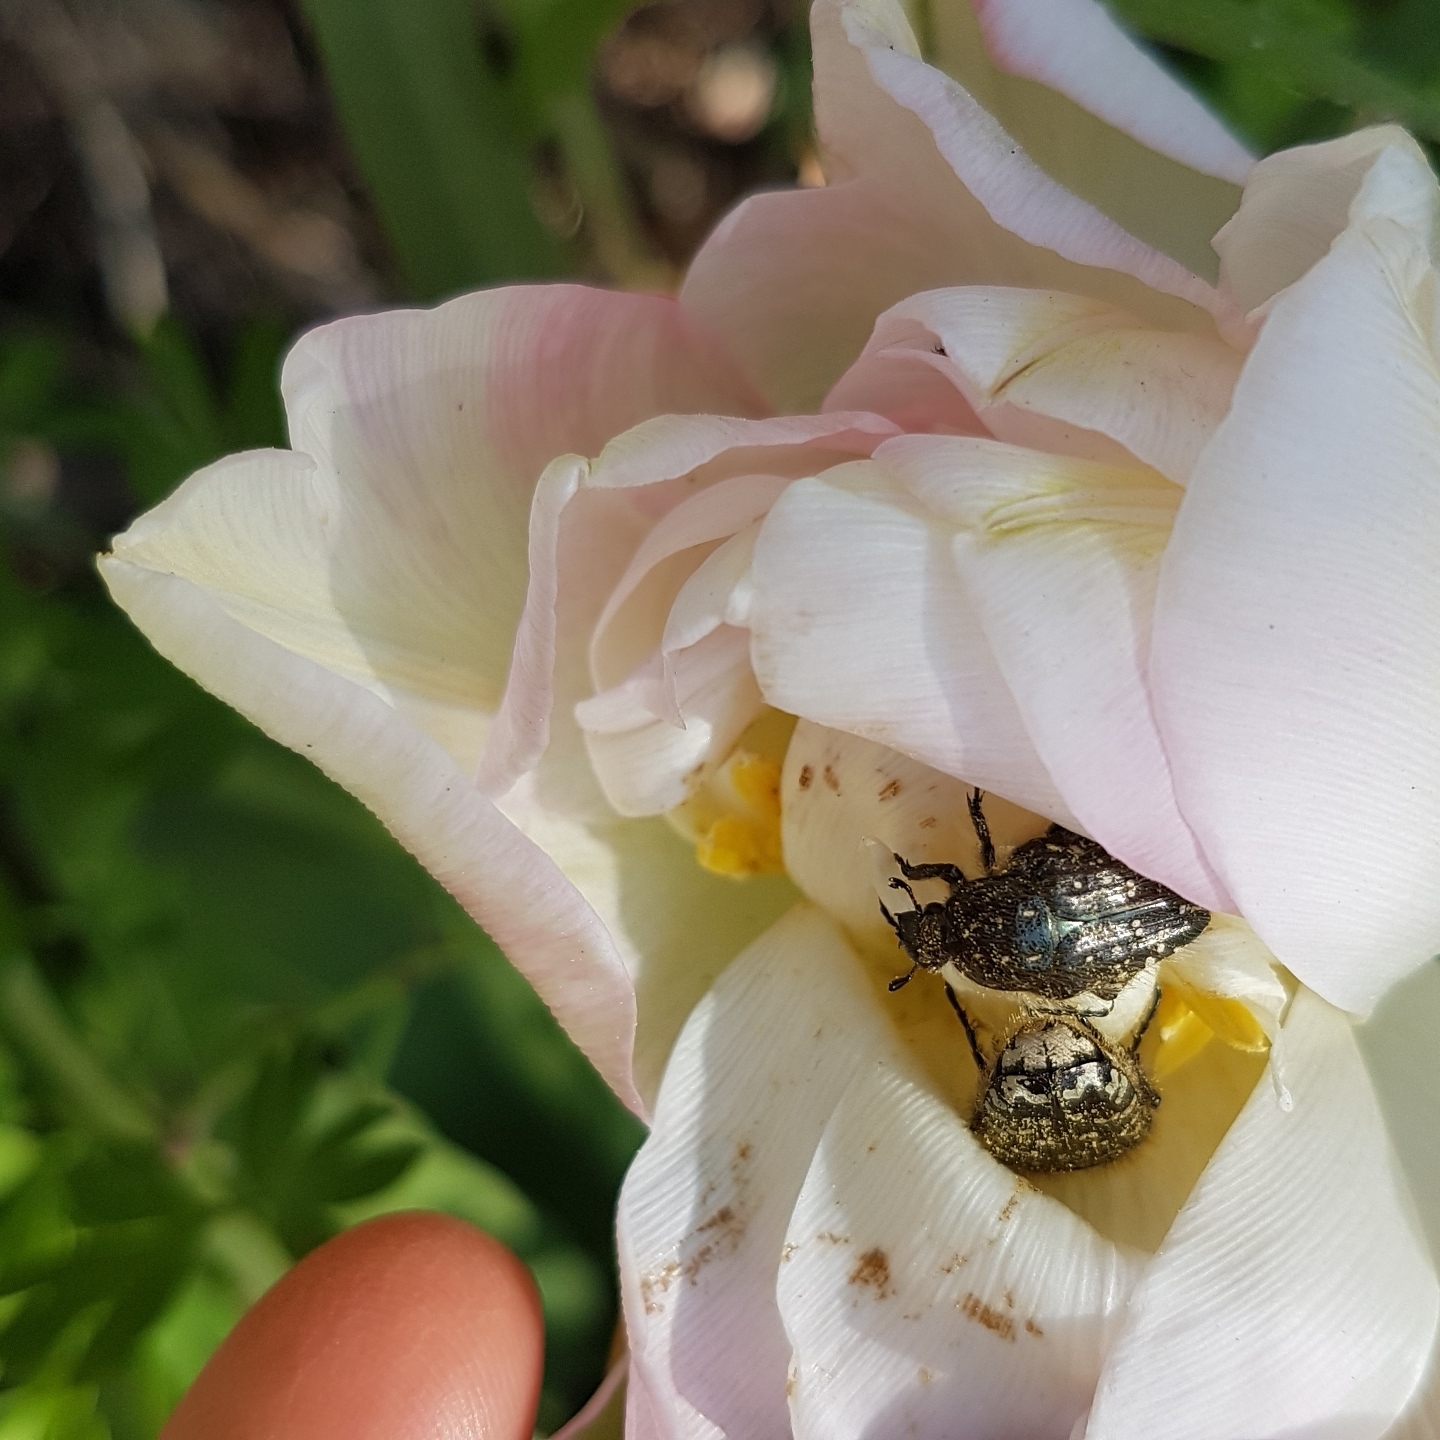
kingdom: Animalia
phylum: Arthropoda
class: Insecta
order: Coleoptera
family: Scarabaeidae
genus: Oxythyrea
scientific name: Oxythyrea funesta
